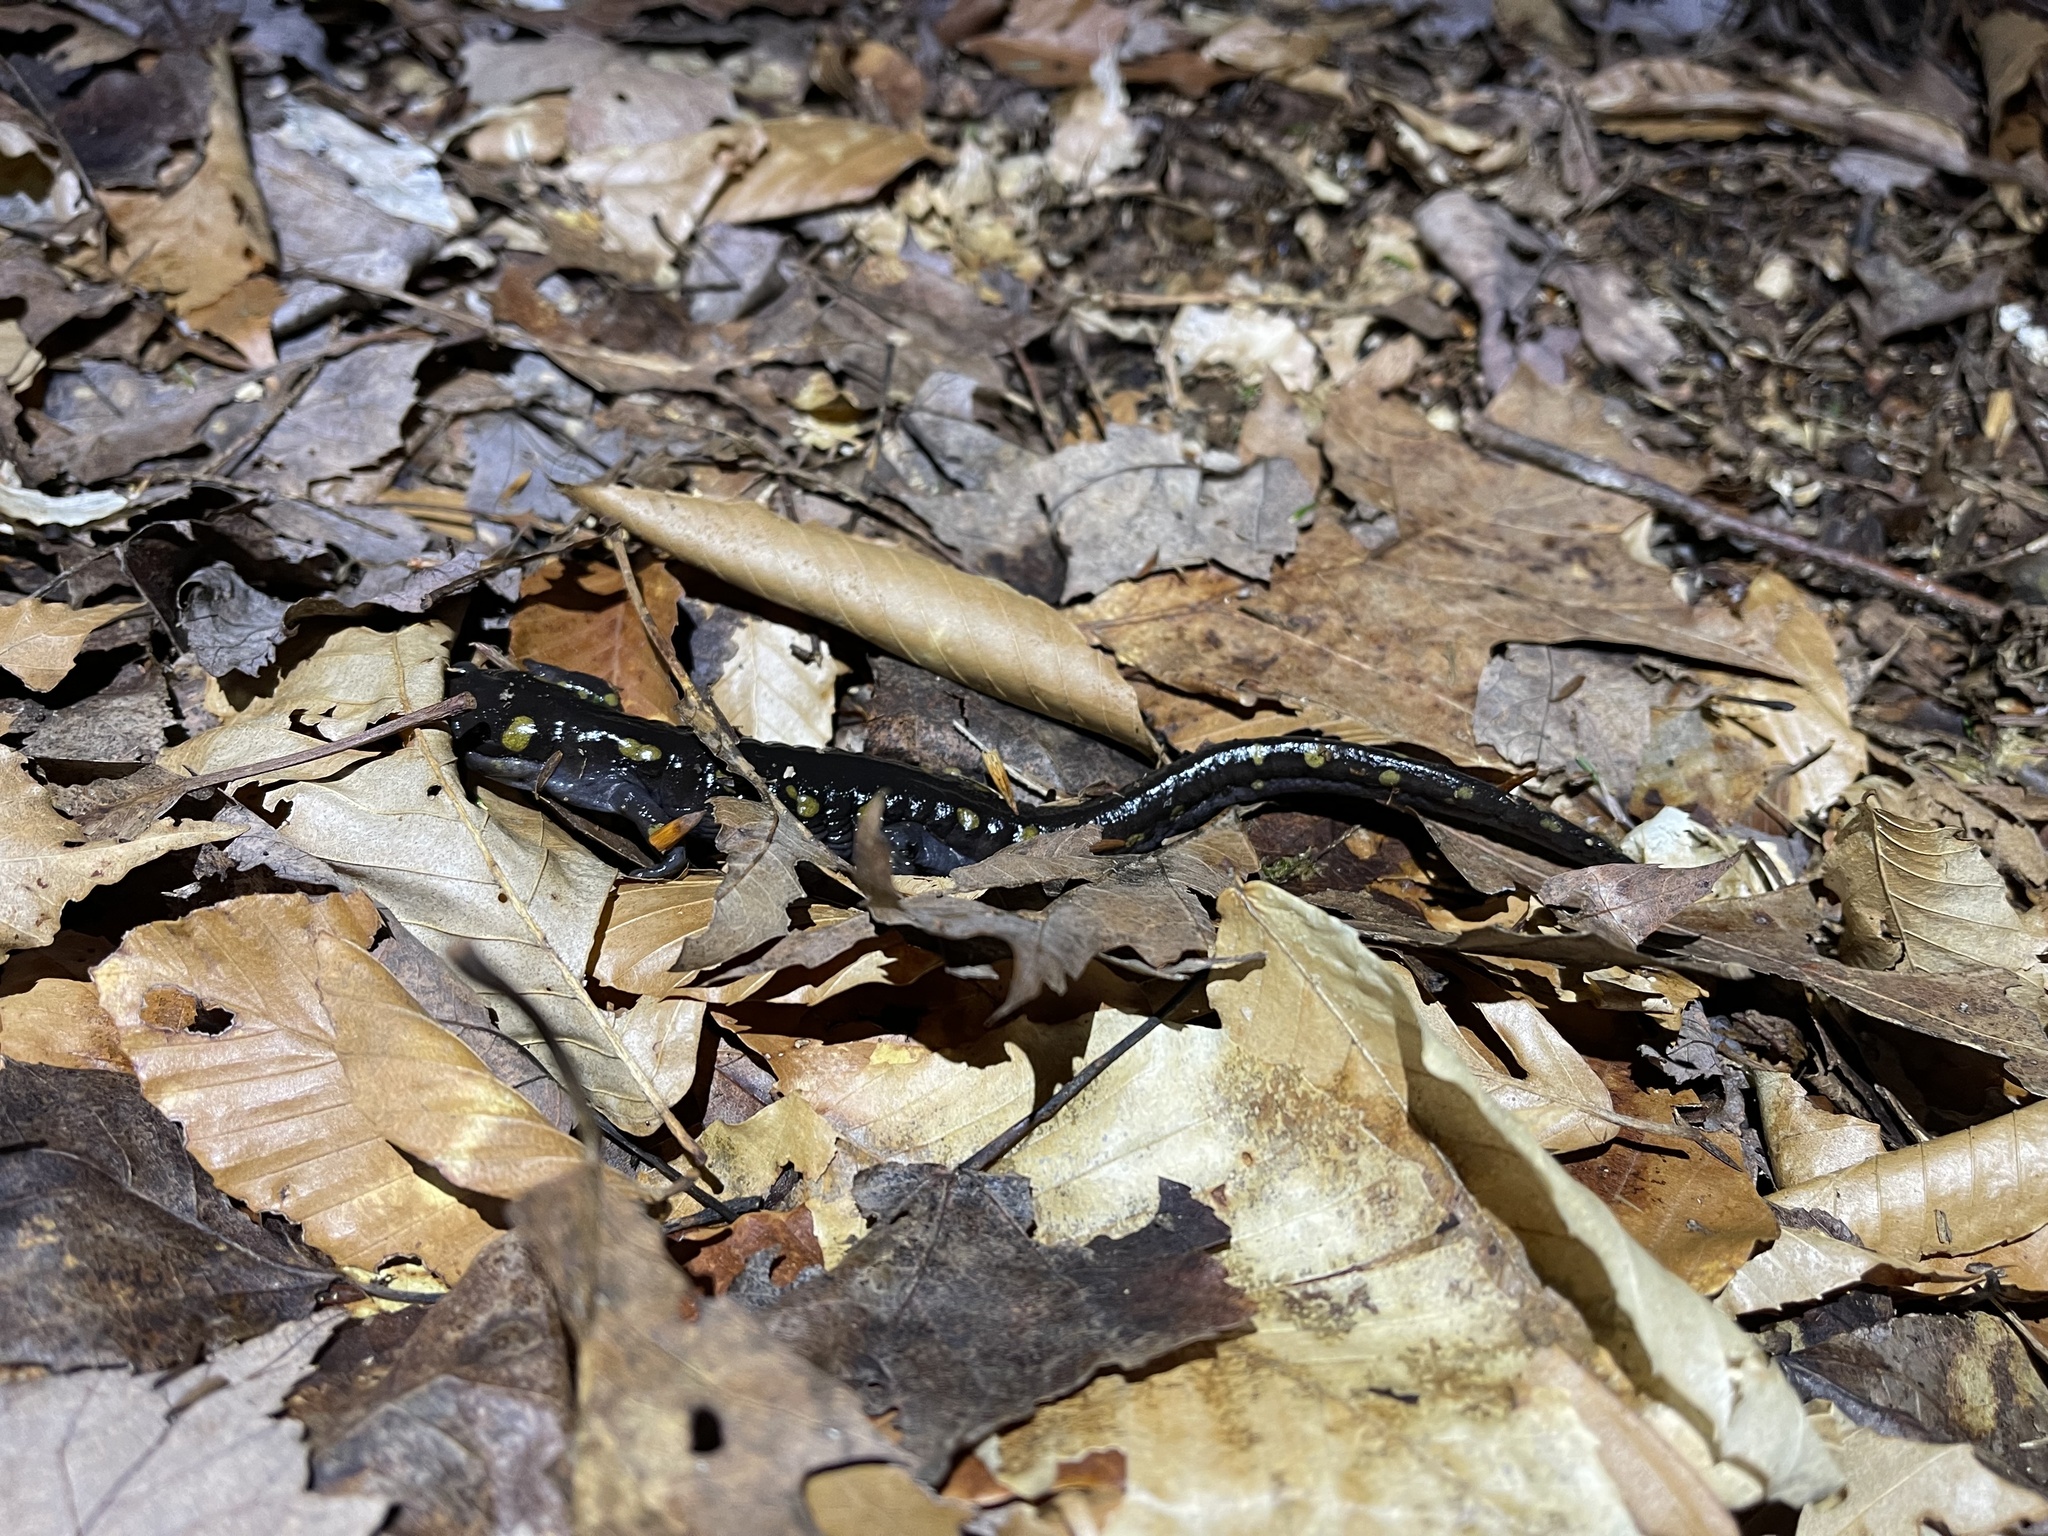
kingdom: Animalia
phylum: Chordata
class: Amphibia
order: Caudata
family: Ambystomatidae
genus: Ambystoma
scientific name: Ambystoma maculatum
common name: Spotted salamander
